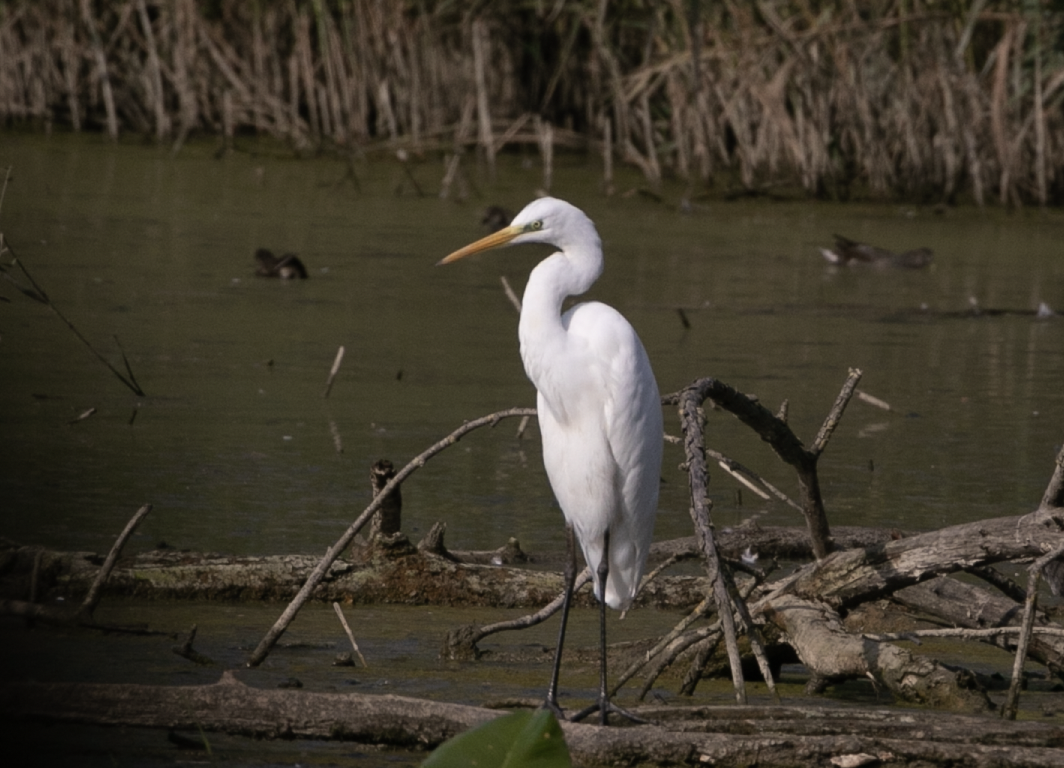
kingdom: Animalia
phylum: Chordata
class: Aves
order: Pelecaniformes
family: Ardeidae
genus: Ardea
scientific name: Ardea alba
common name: Great egret
